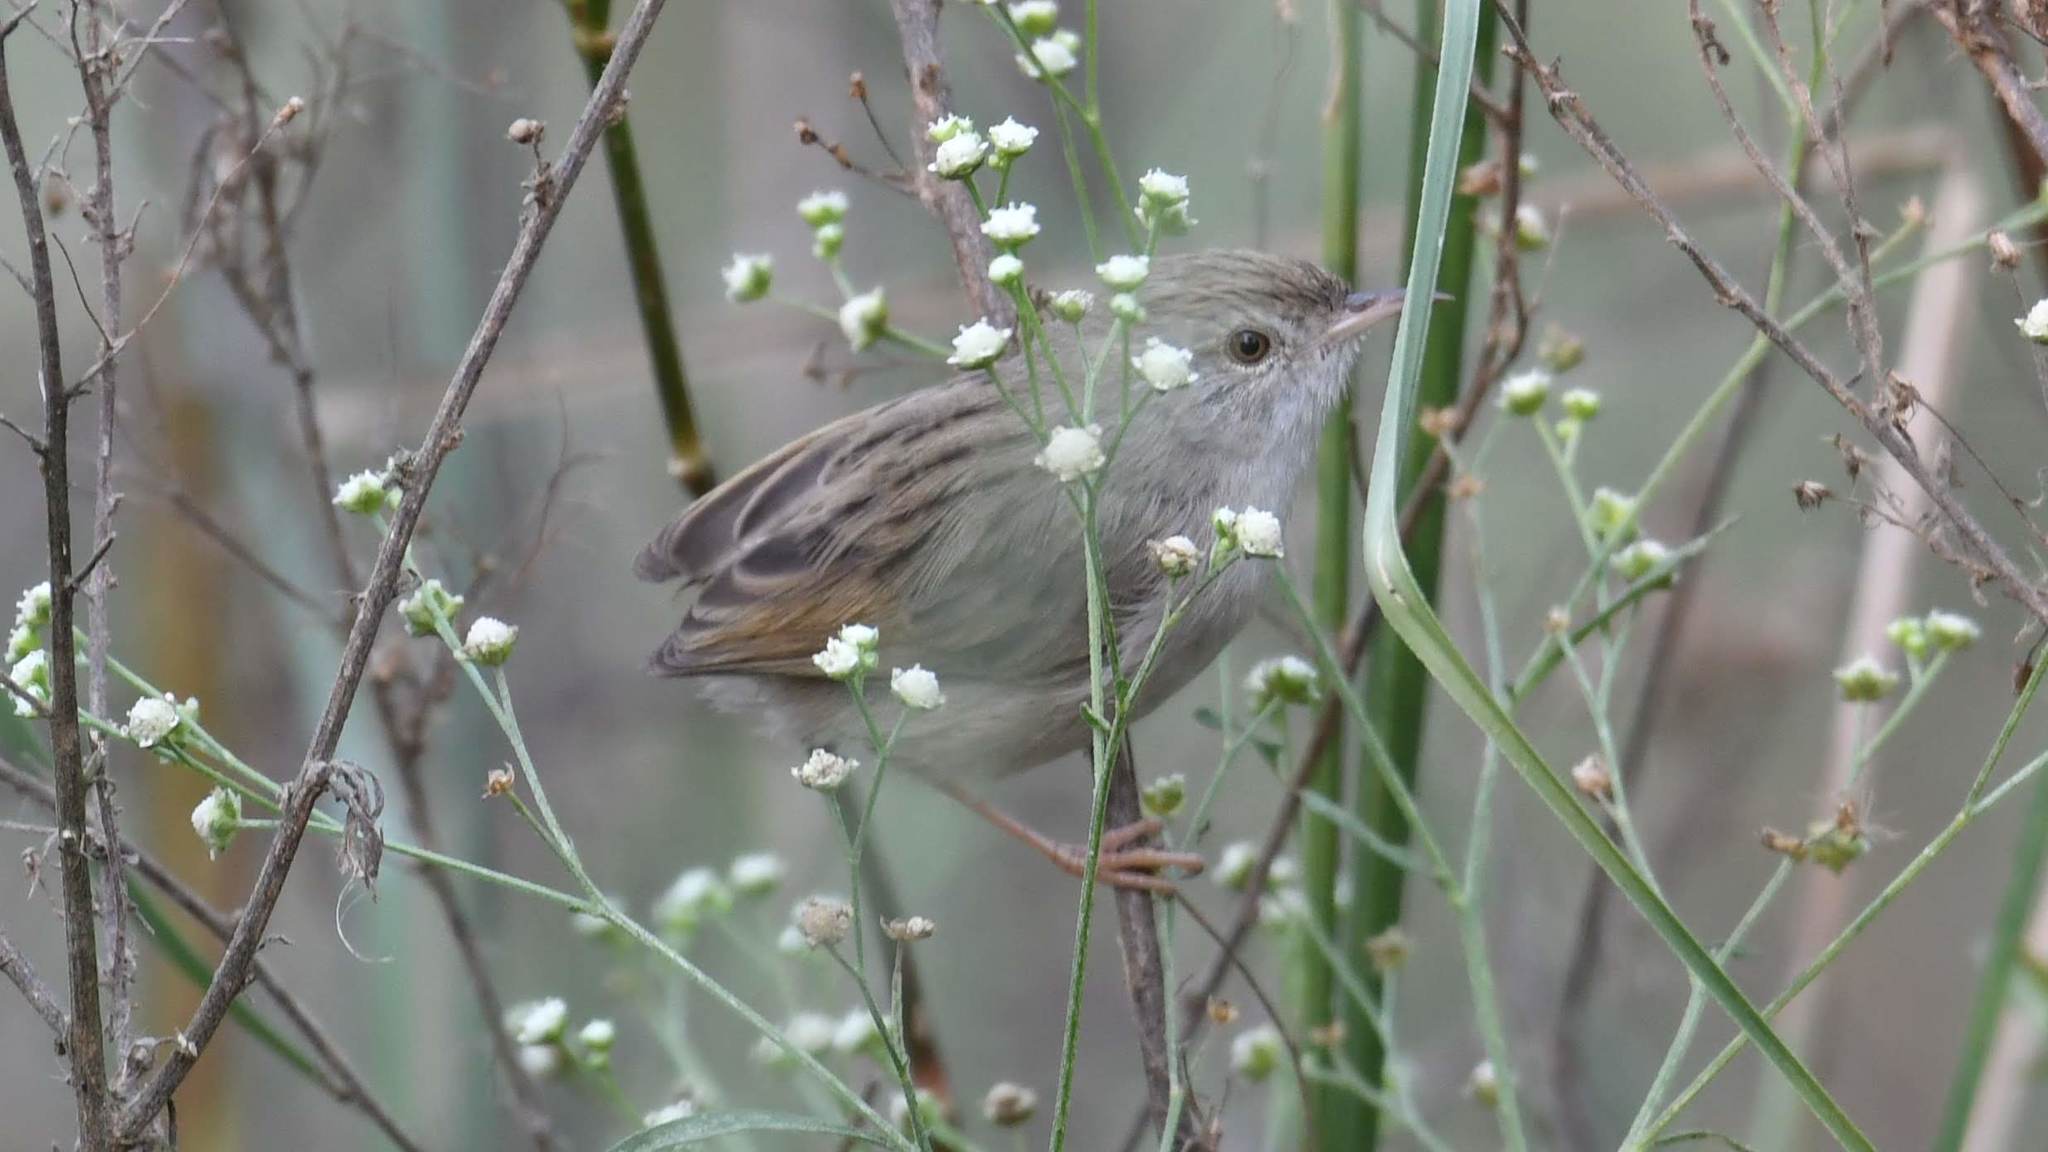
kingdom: Animalia
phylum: Chordata
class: Aves
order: Passeriformes
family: Cisticolidae
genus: Prinia
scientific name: Prinia lepida
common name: Delicate prinia
